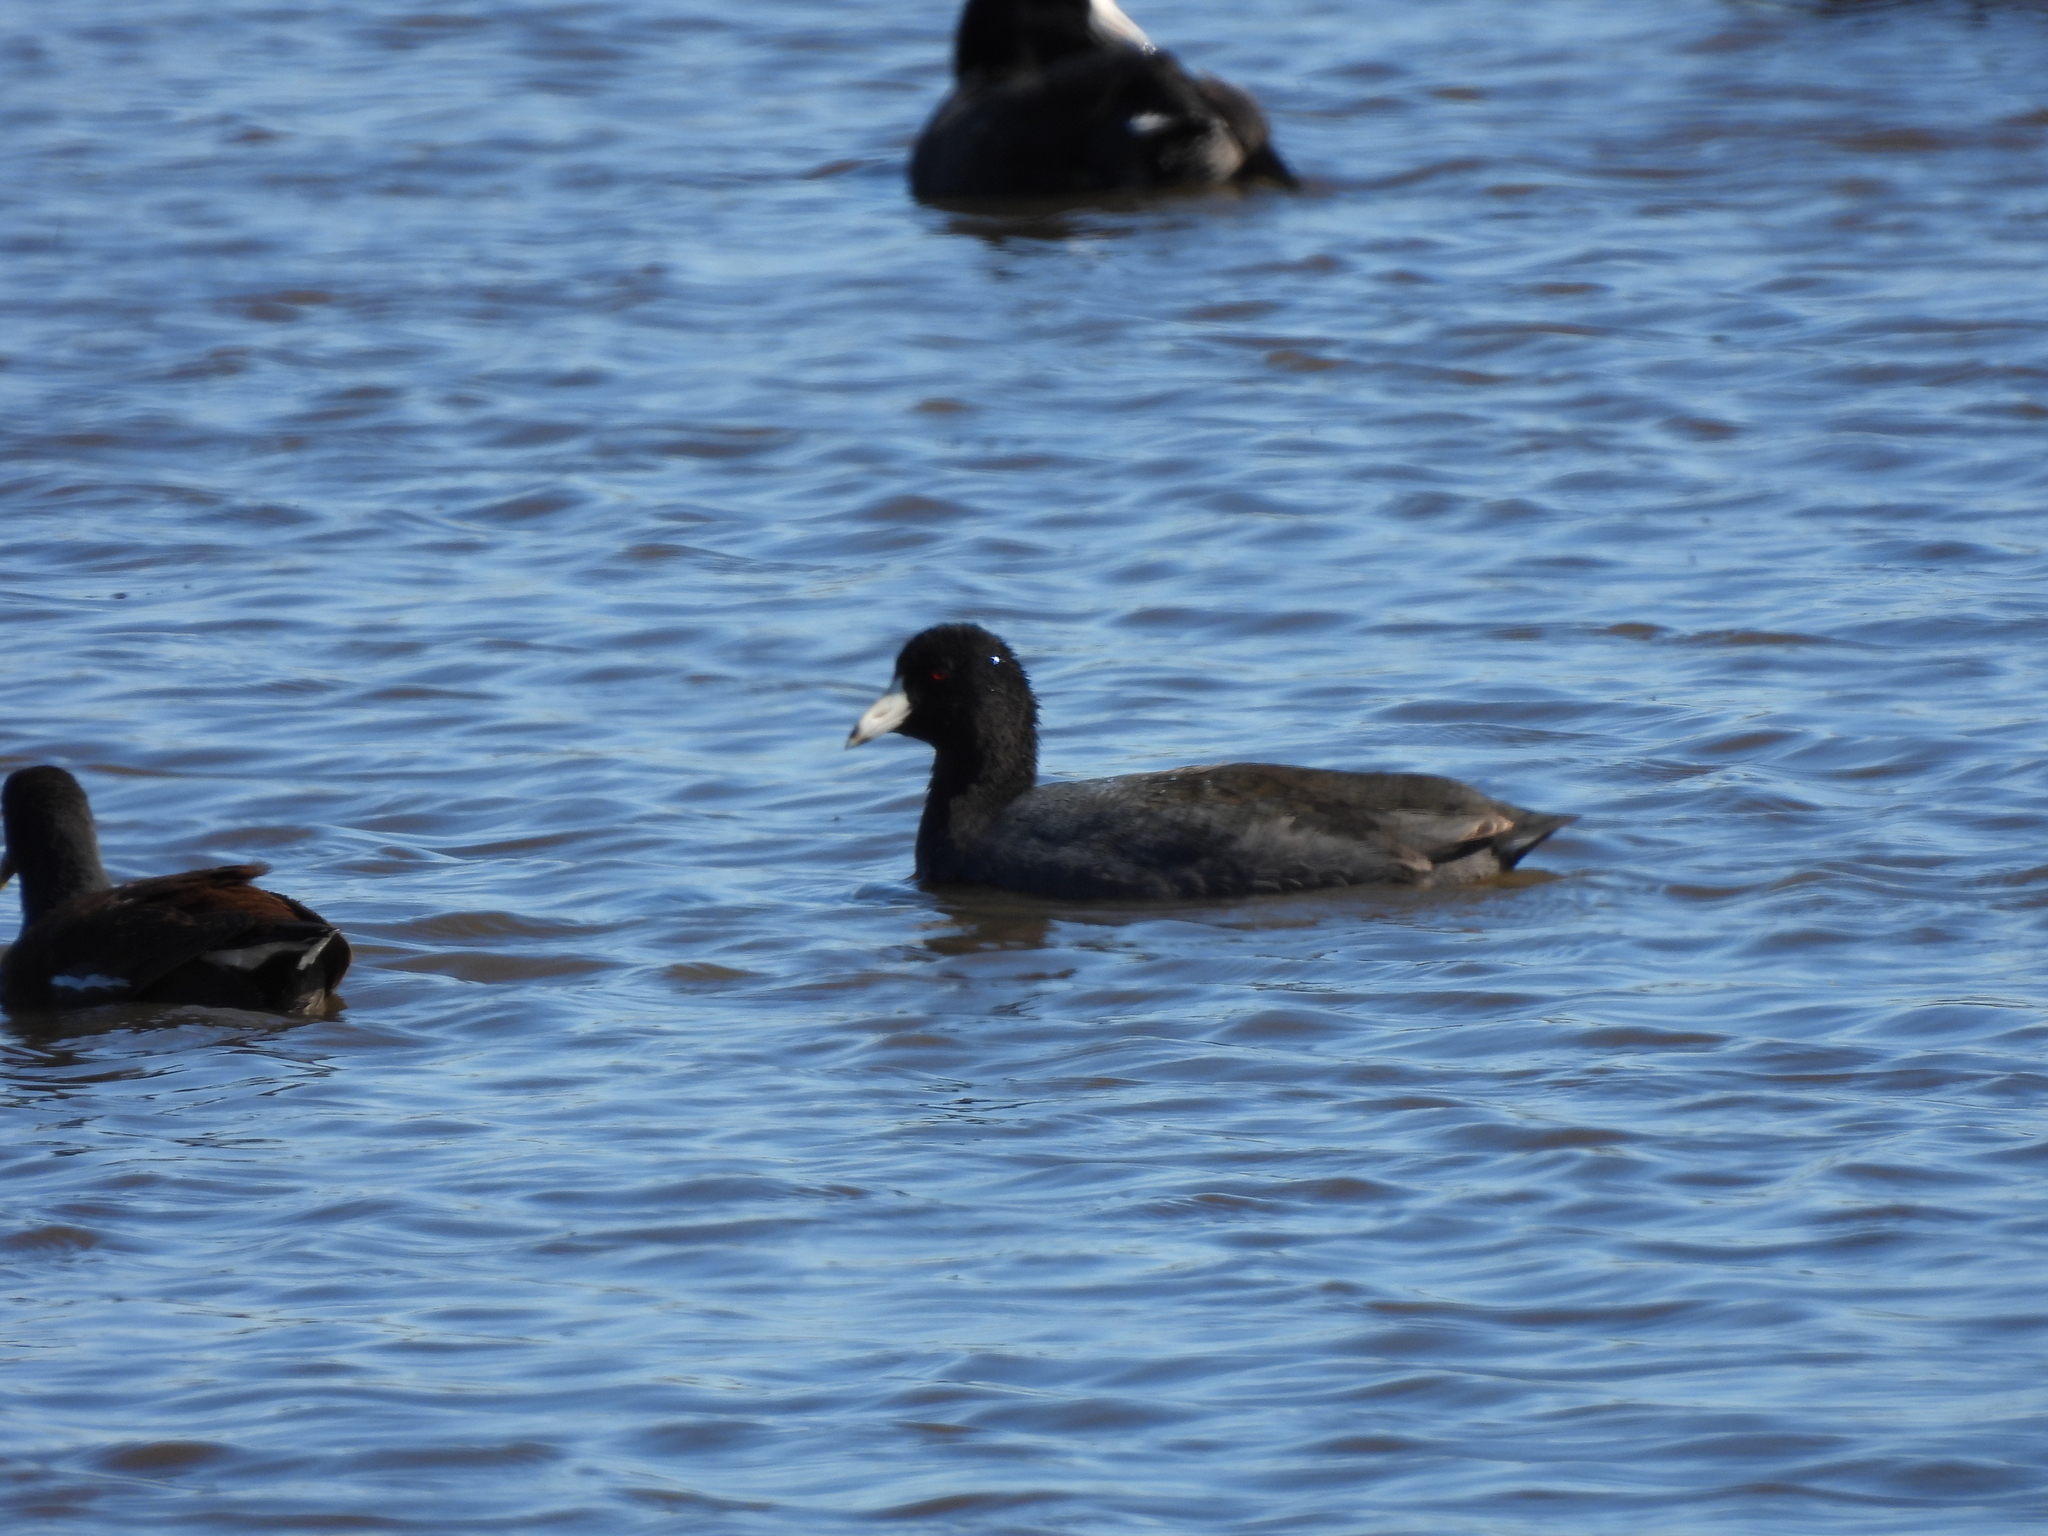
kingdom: Animalia
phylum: Chordata
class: Aves
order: Gruiformes
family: Rallidae
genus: Fulica
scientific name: Fulica americana
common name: American coot
